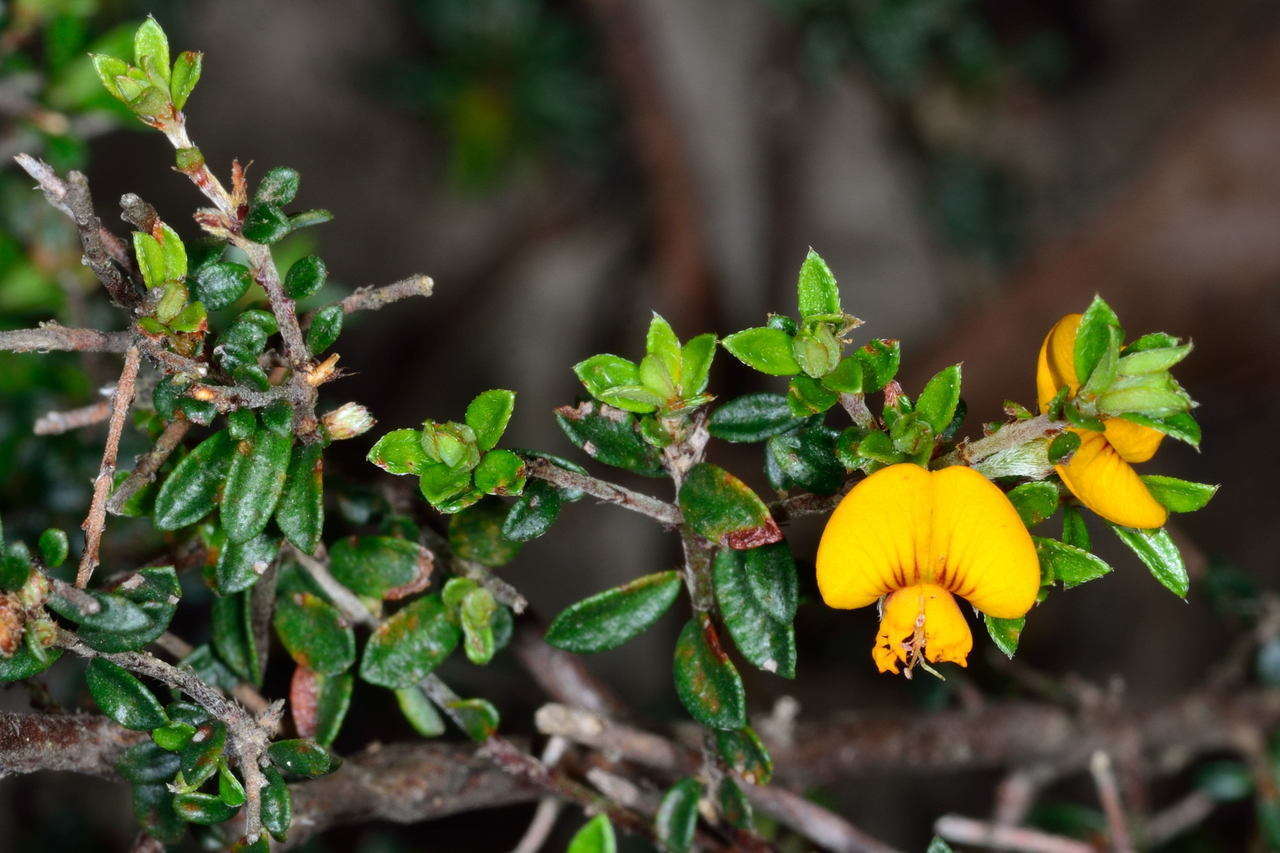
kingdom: Plantae
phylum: Tracheophyta
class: Magnoliopsida
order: Fabales
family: Fabaceae
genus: Pultenaea
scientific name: Pultenaea gunnii
